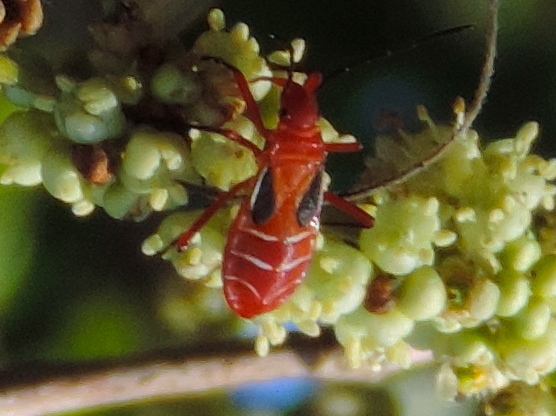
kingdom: Animalia
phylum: Arthropoda
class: Insecta
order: Hemiptera
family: Pyrrhocoridae
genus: Dysdercus
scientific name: Dysdercus
